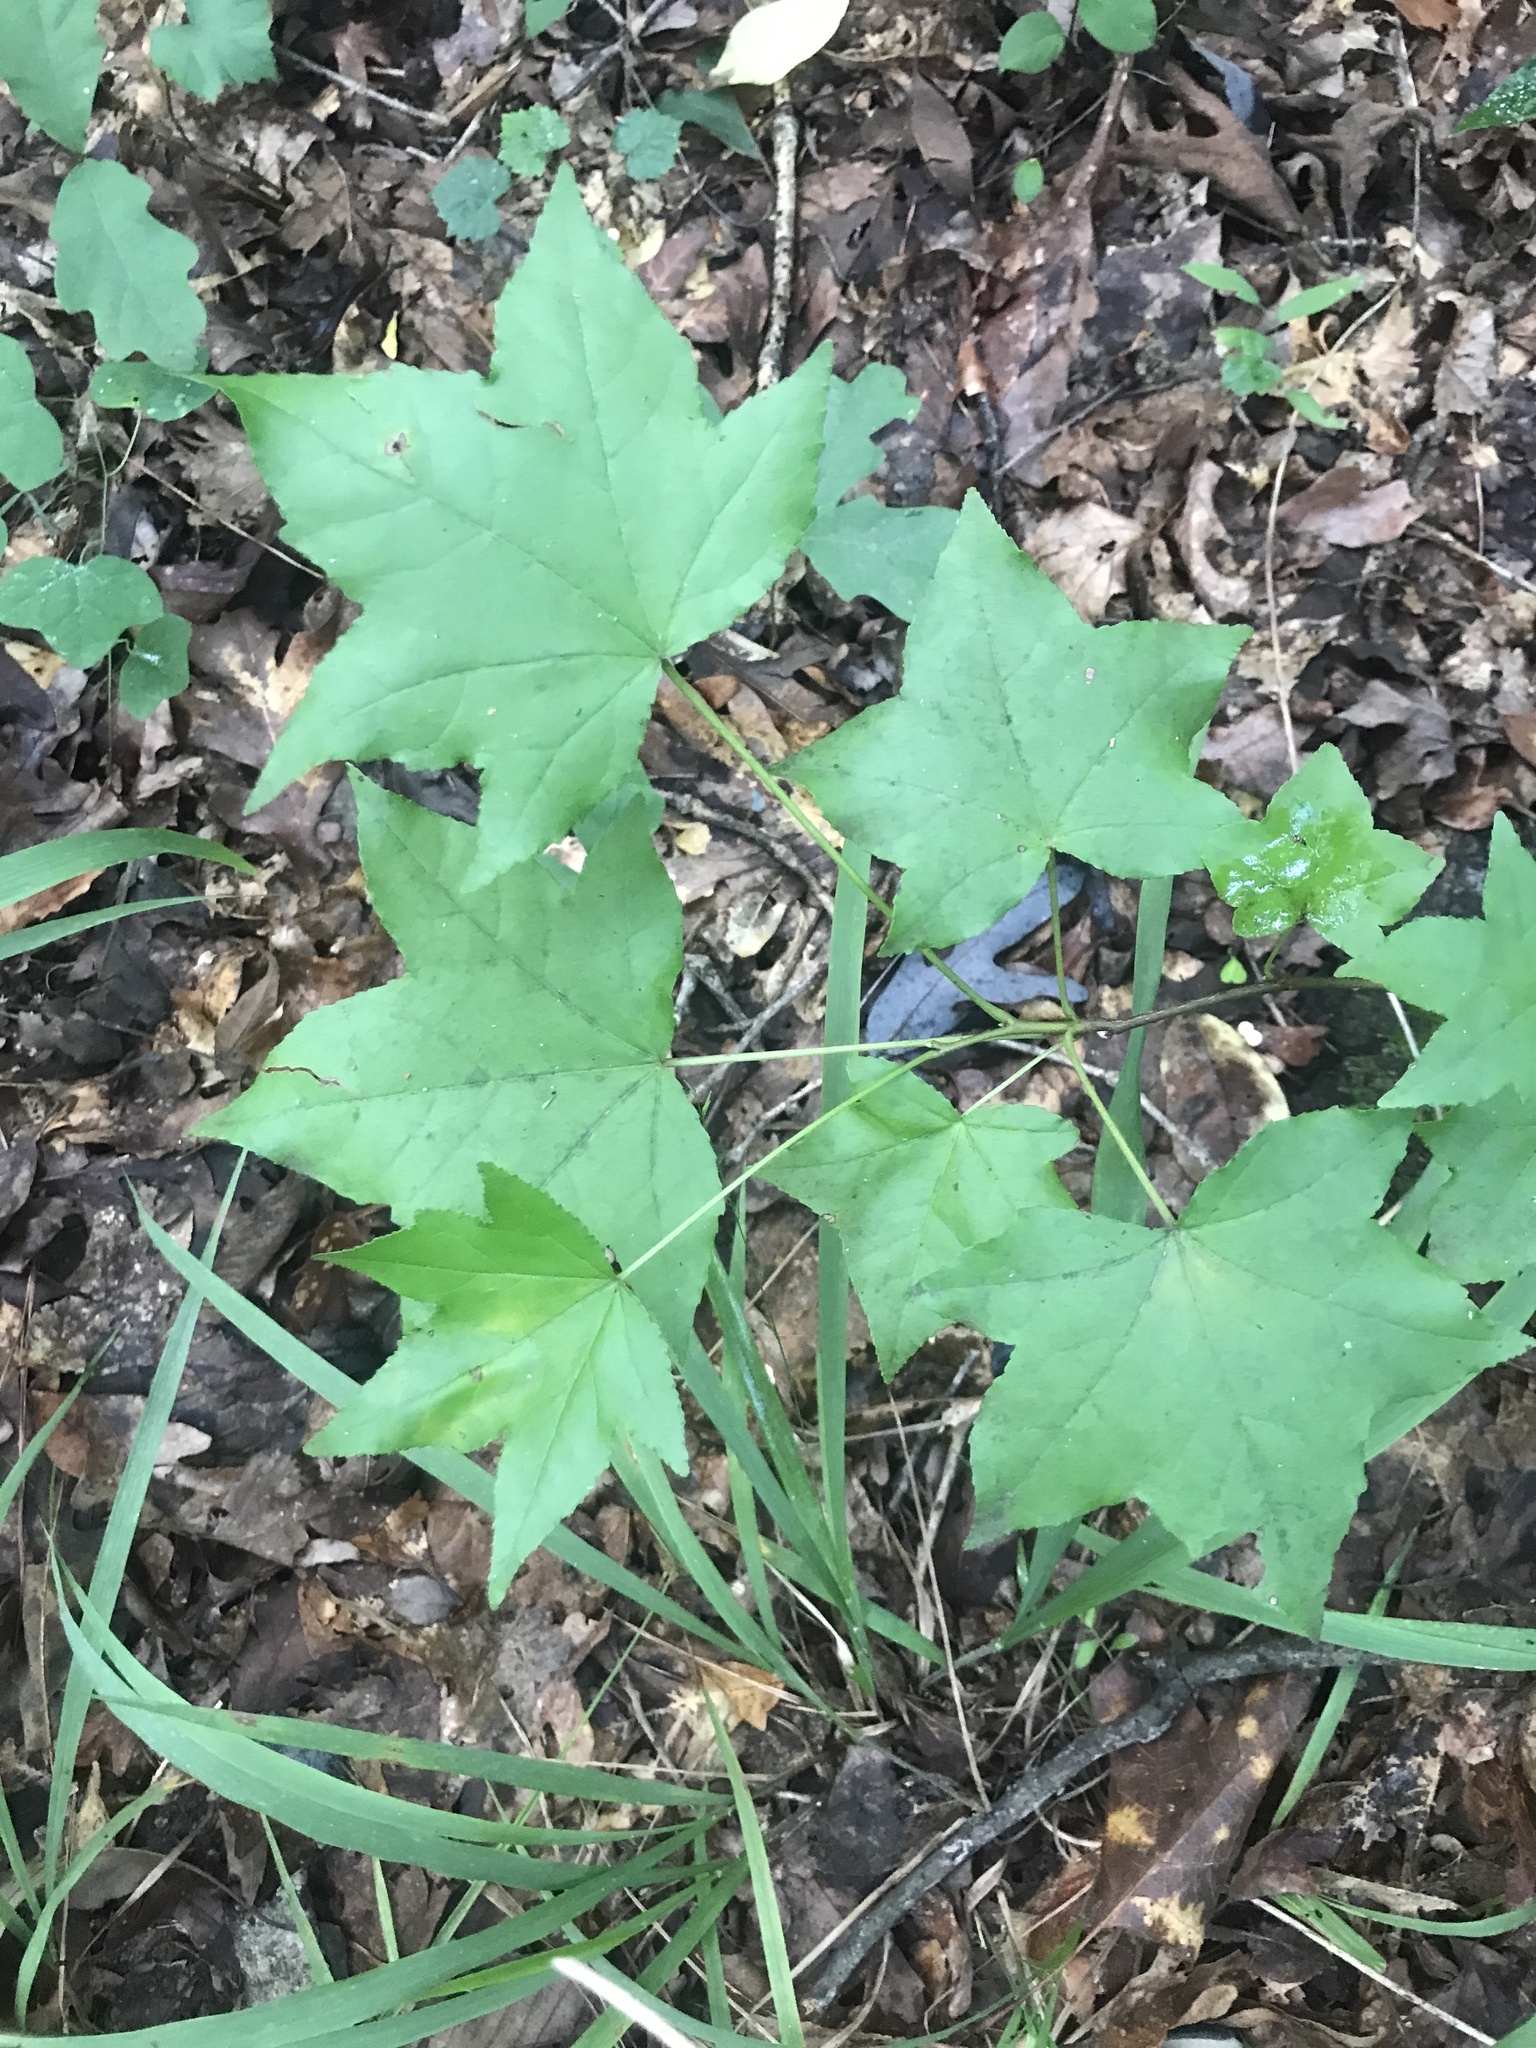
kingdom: Plantae
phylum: Tracheophyta
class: Magnoliopsida
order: Saxifragales
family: Altingiaceae
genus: Liquidambar
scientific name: Liquidambar styraciflua
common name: Sweet gum
